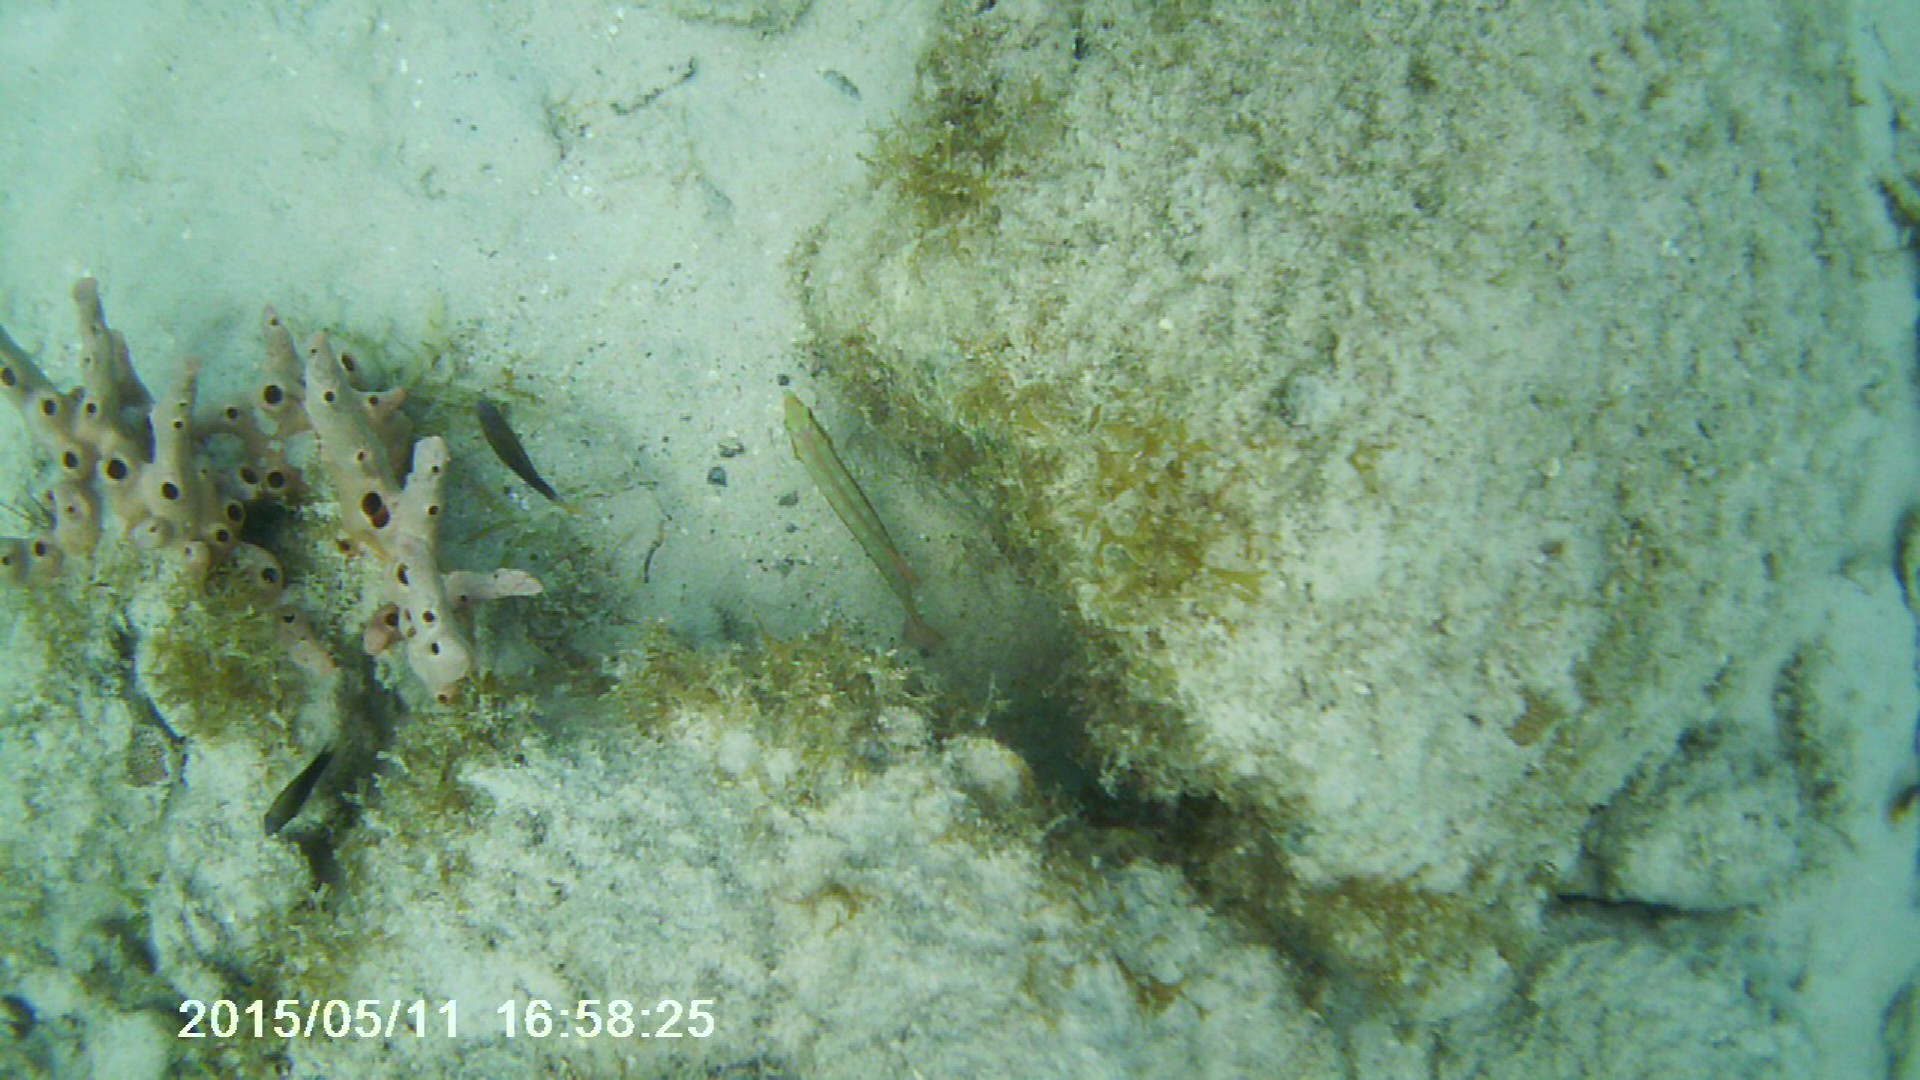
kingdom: Animalia
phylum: Porifera
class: Demospongiae
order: Poecilosclerida
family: Desmacididae
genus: Desmapsamma
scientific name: Desmapsamma anchorata
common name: Lumpy overgrowing sponge
